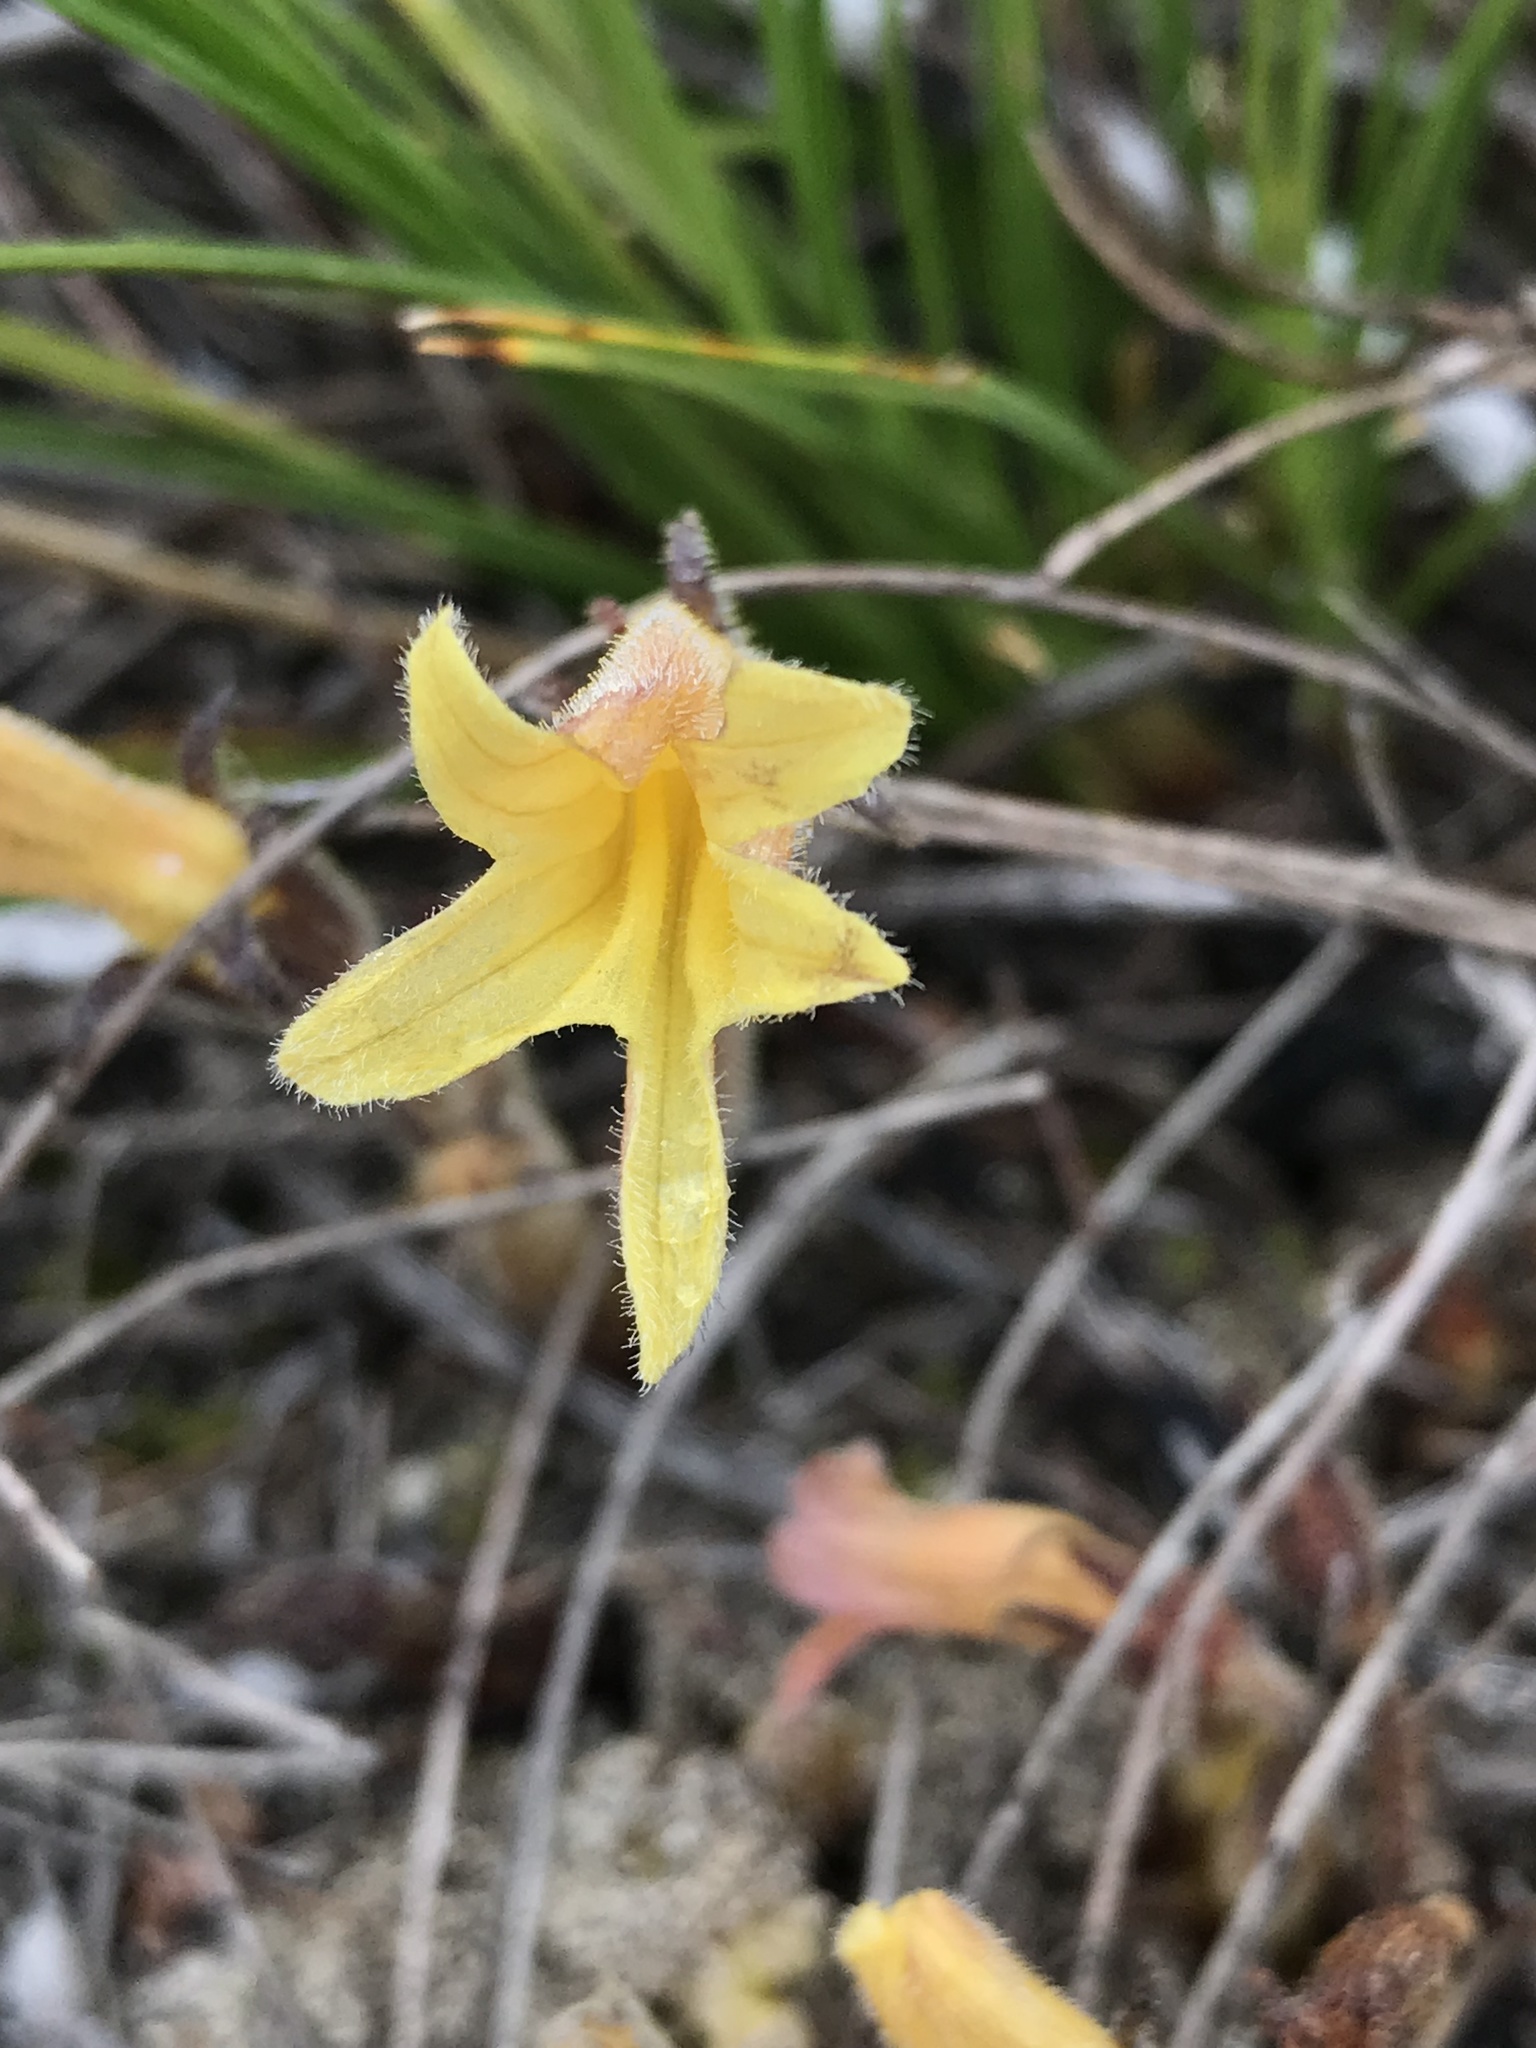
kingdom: Plantae
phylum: Tracheophyta
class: Magnoliopsida
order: Lamiales
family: Orobanchaceae
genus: Aphyllon
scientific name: Aphyllon franciscanum
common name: San francisco broomrape
